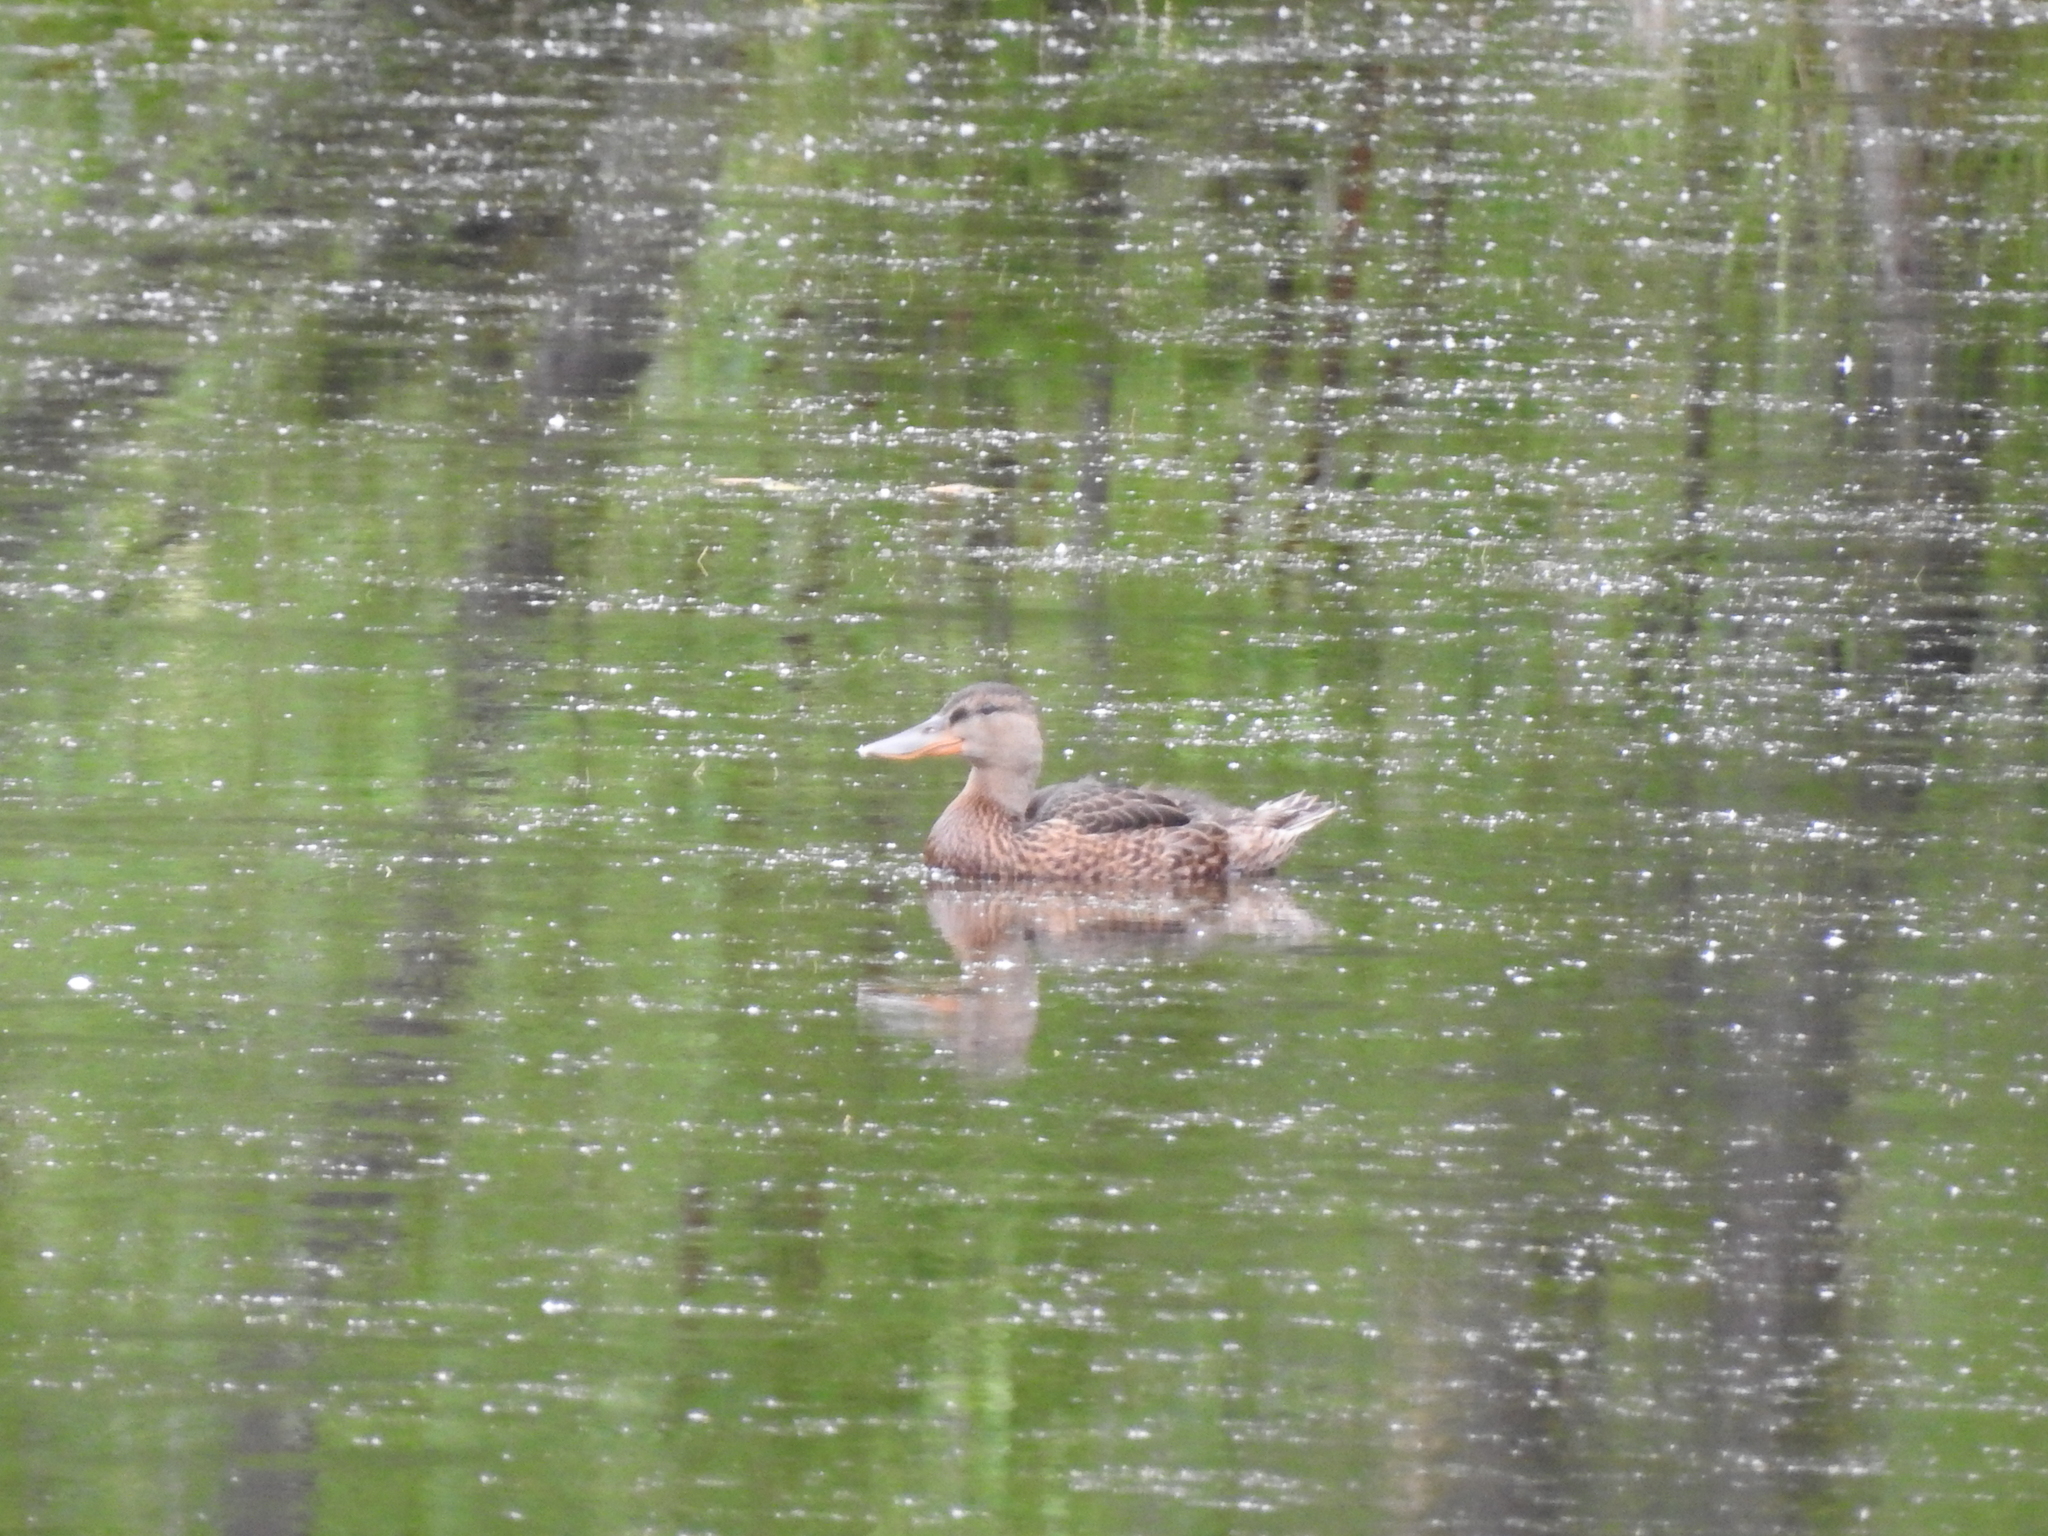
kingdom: Animalia
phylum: Chordata
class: Aves
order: Anseriformes
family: Anatidae
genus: Spatula
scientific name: Spatula clypeata
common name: Northern shoveler
